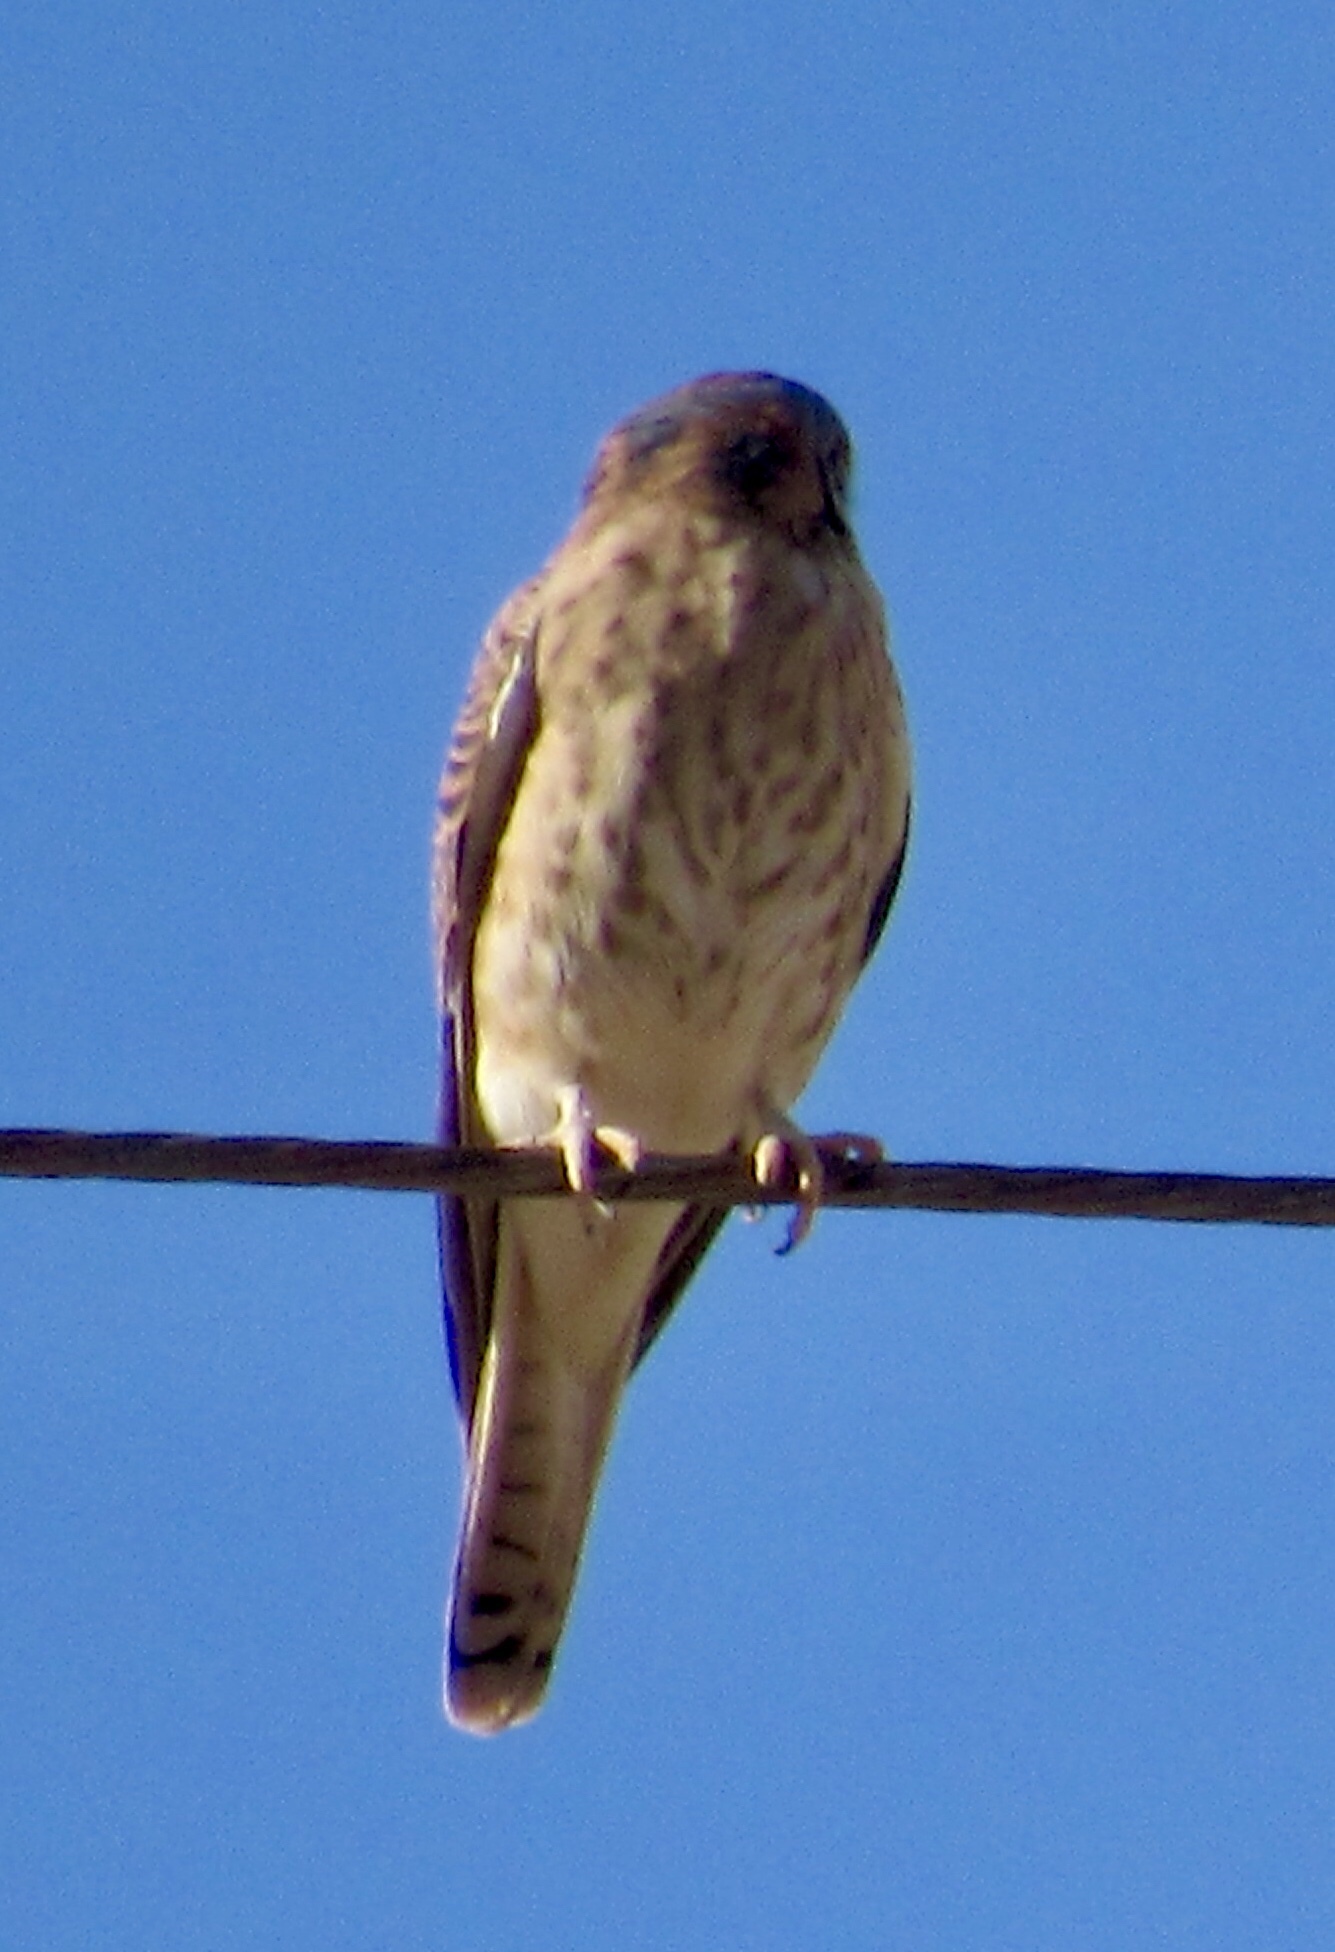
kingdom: Animalia
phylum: Chordata
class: Aves
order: Falconiformes
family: Falconidae
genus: Falco
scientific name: Falco sparverius
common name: American kestrel
